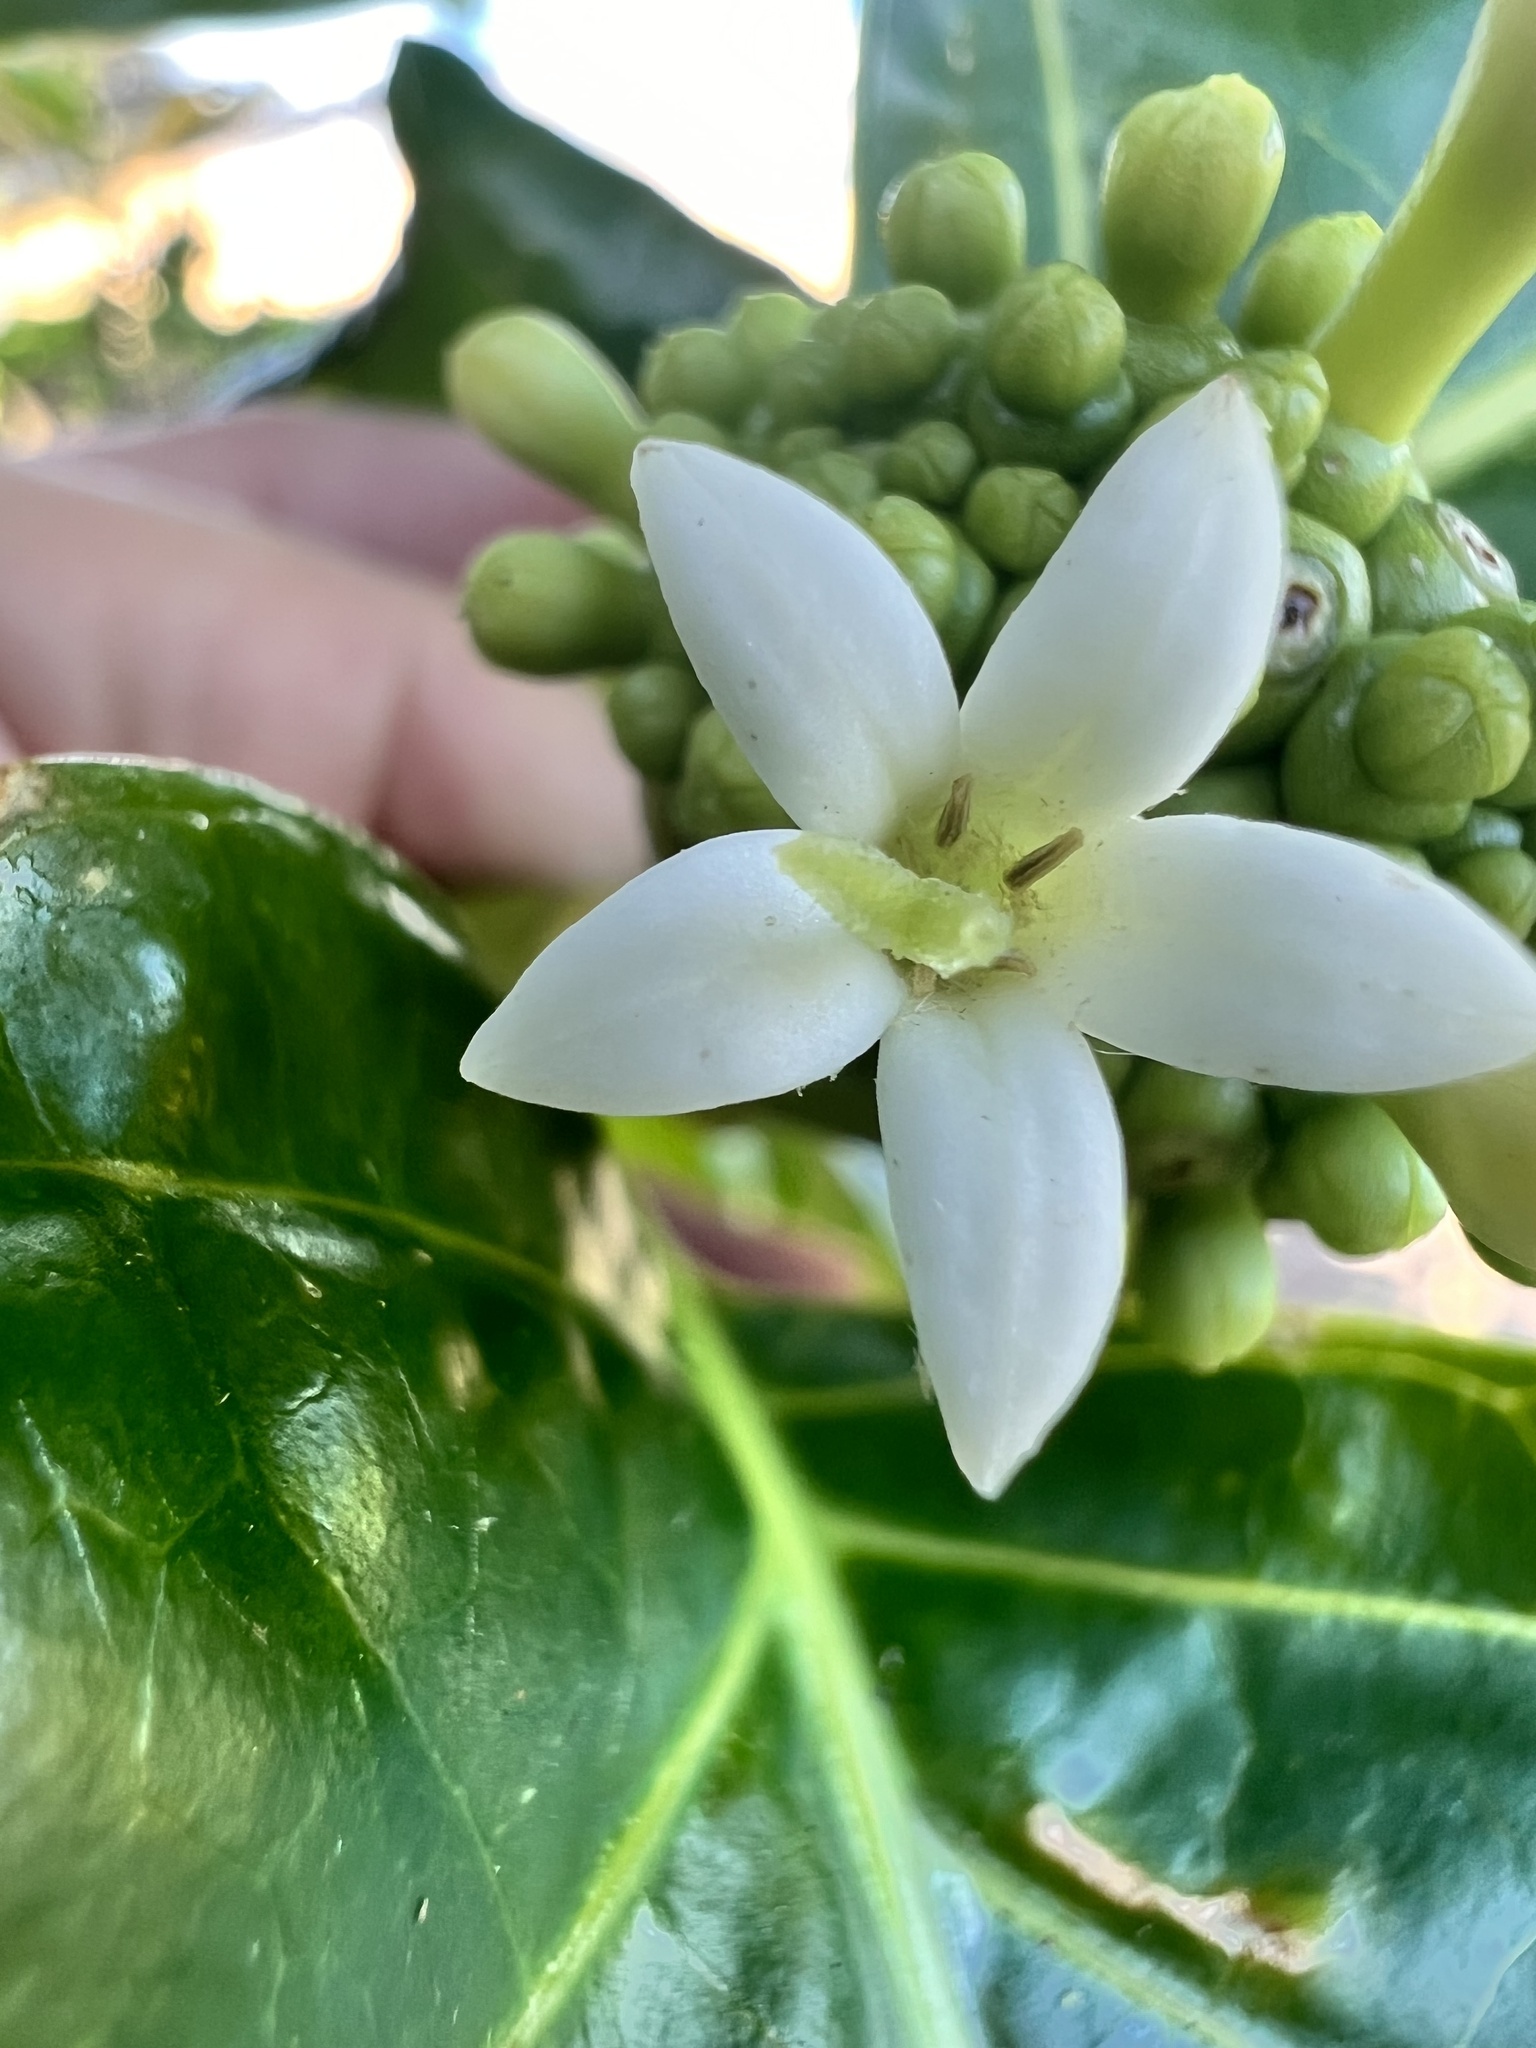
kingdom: Plantae
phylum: Tracheophyta
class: Magnoliopsida
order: Gentianales
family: Rubiaceae
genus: Morinda
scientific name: Morinda citrifolia
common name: Indian-mulberry
